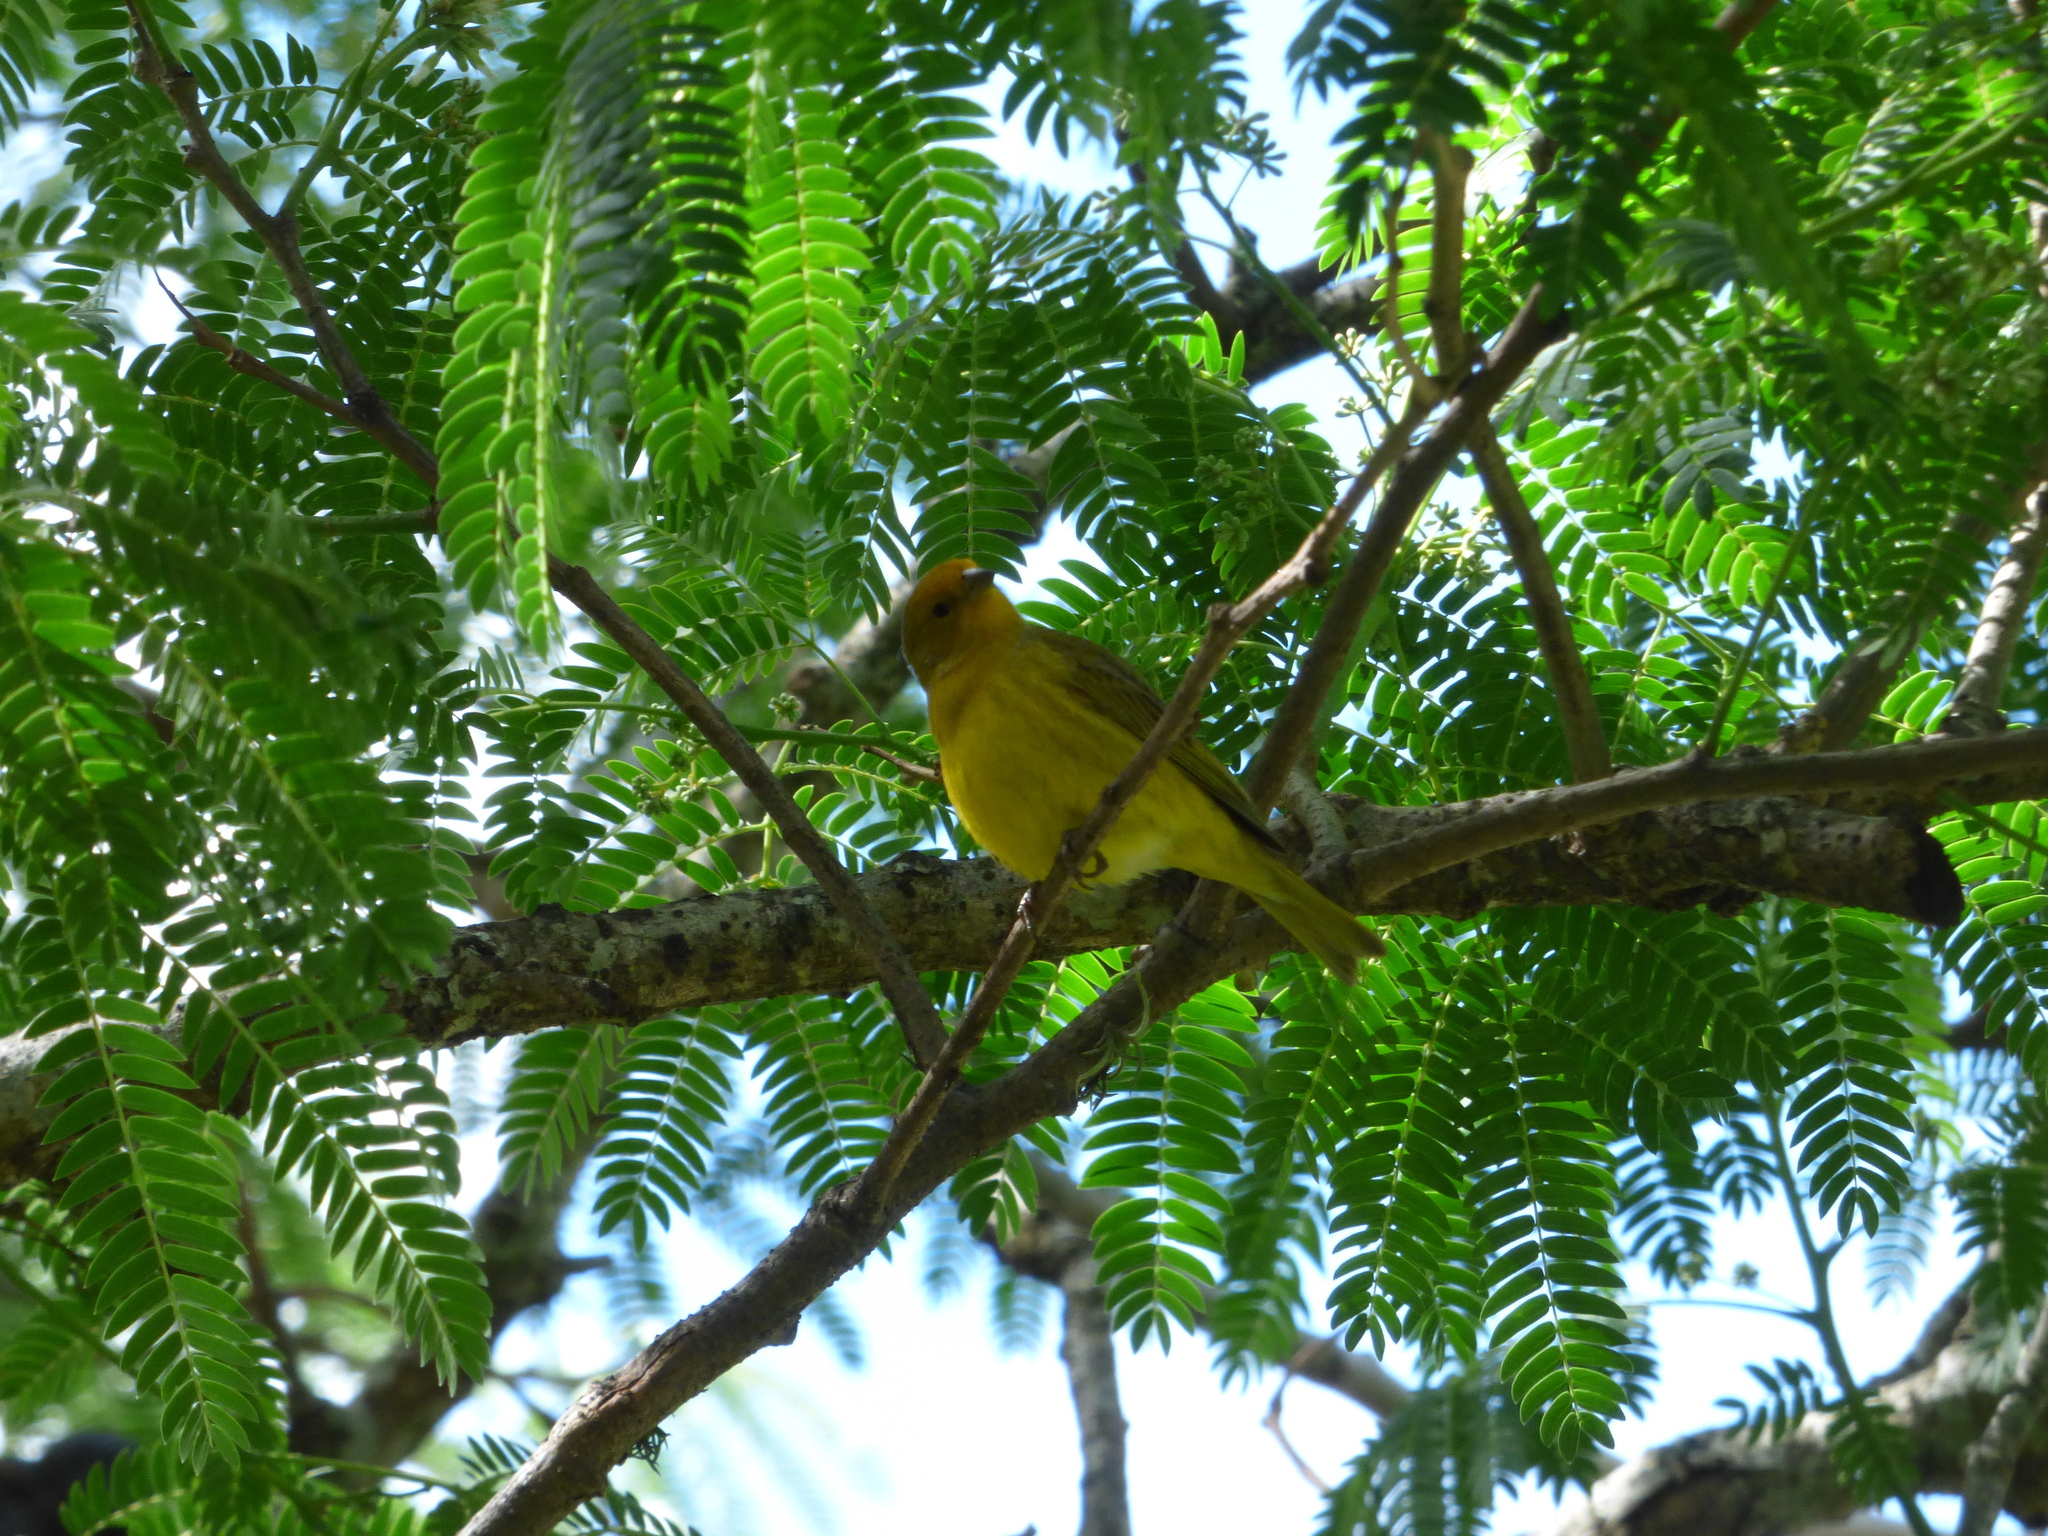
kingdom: Animalia
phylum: Chordata
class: Aves
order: Passeriformes
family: Thraupidae
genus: Sicalis
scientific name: Sicalis flaveola
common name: Saffron finch
